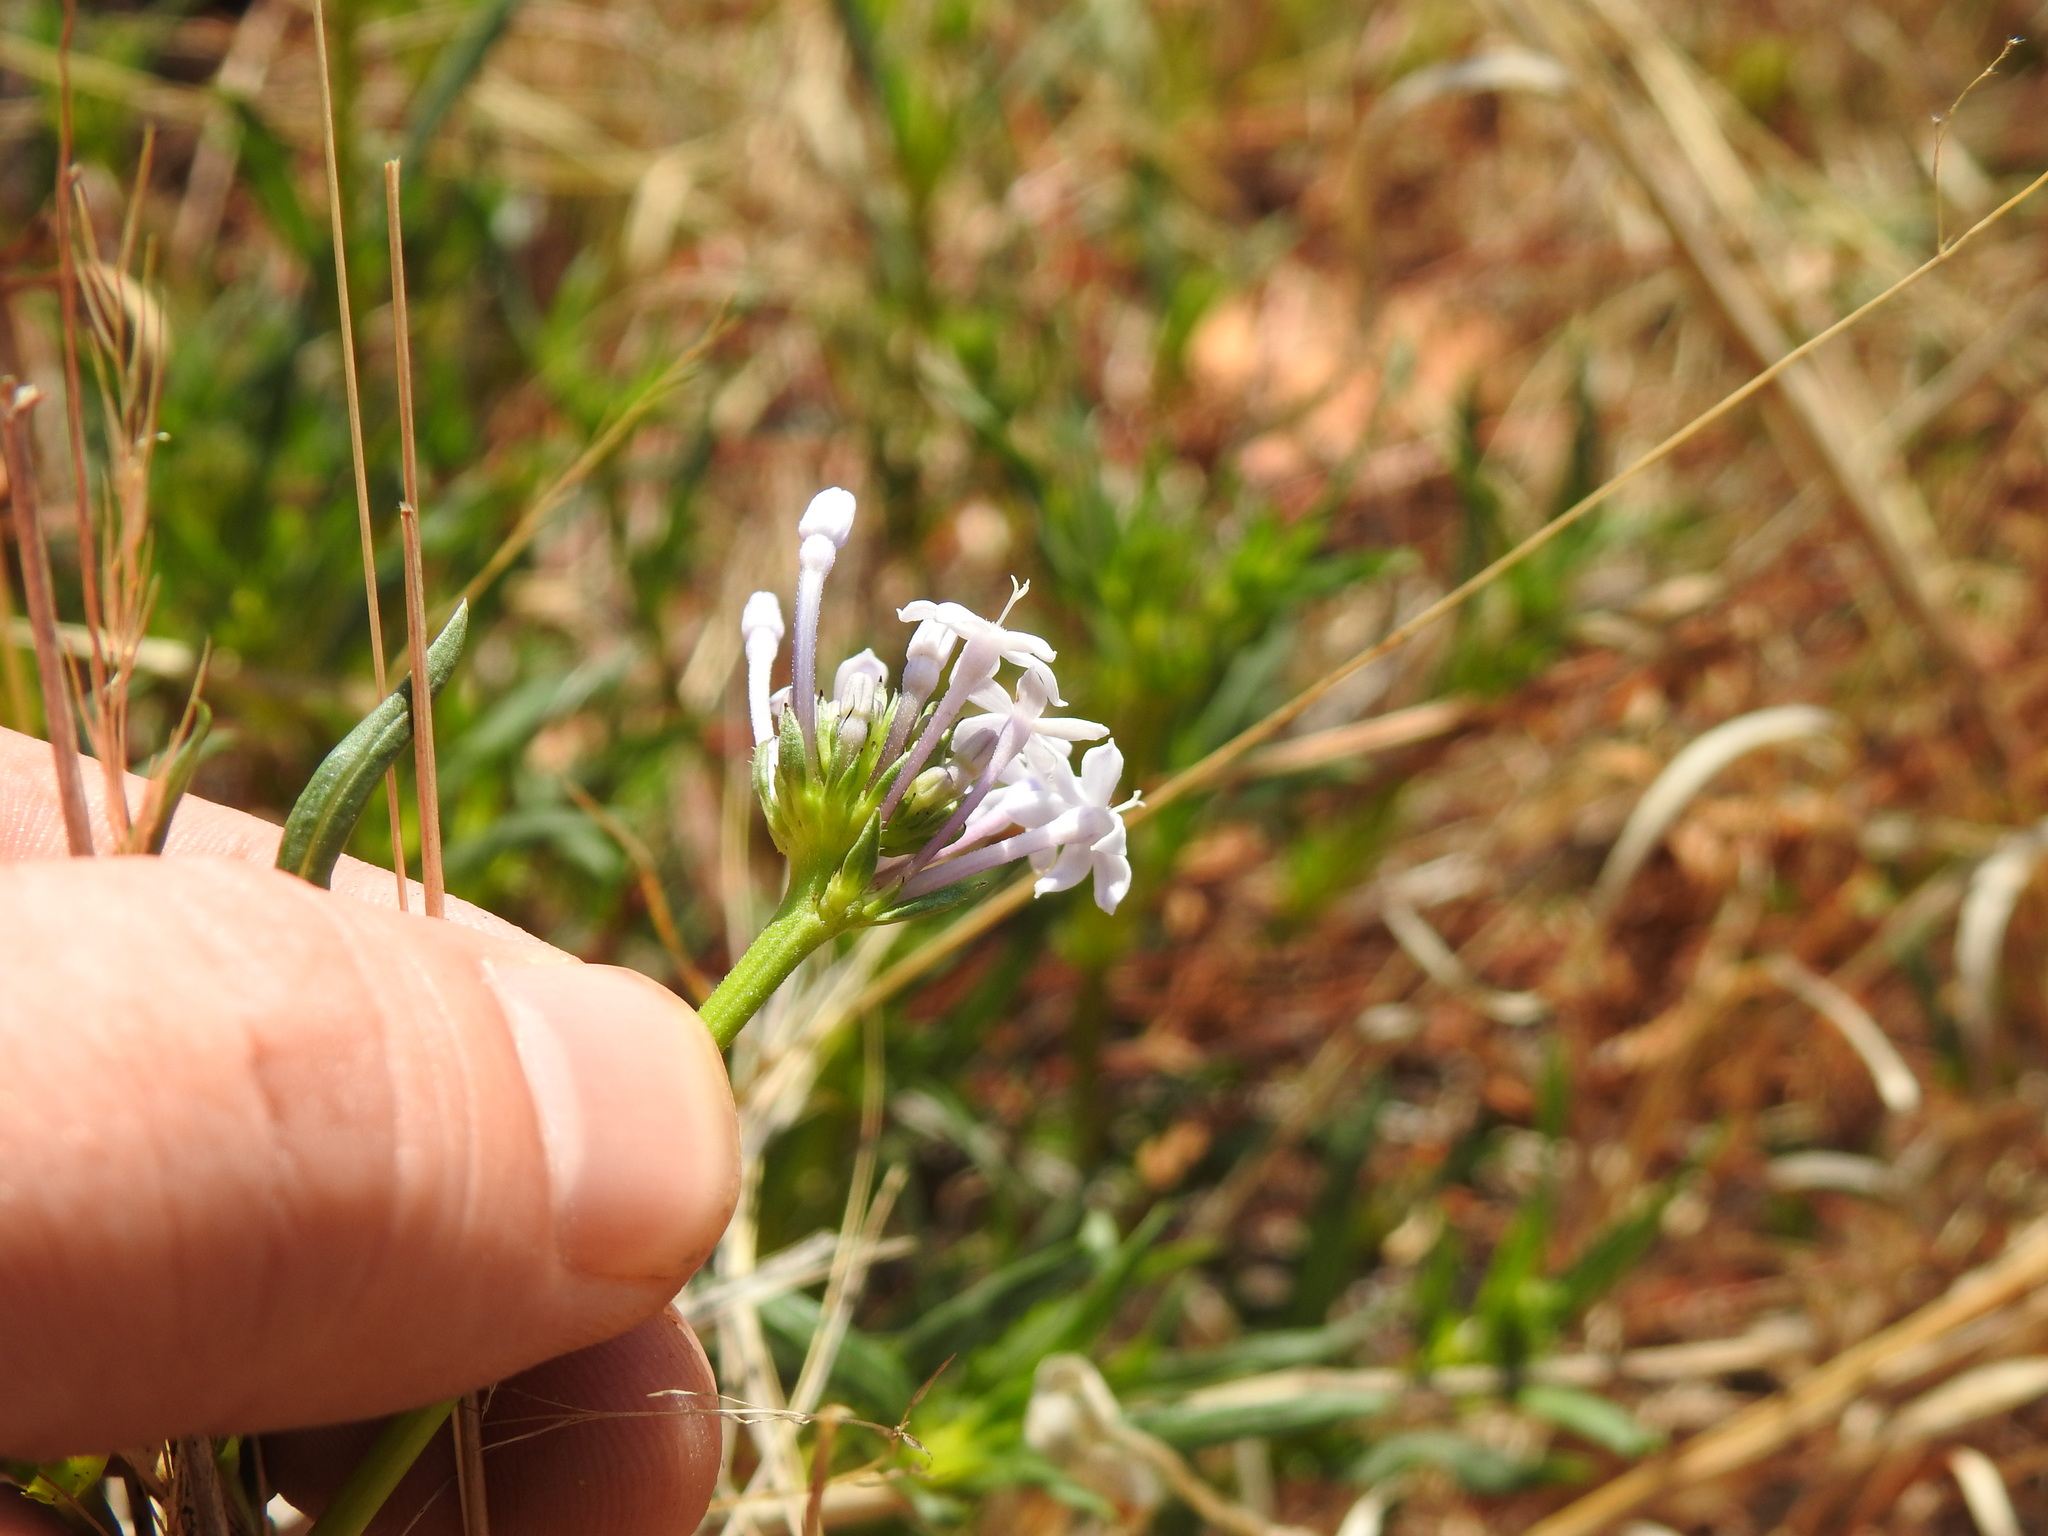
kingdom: Plantae
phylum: Tracheophyta
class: Magnoliopsida
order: Gentianales
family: Rubiaceae
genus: Pentanisia
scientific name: Pentanisia angustifolia
